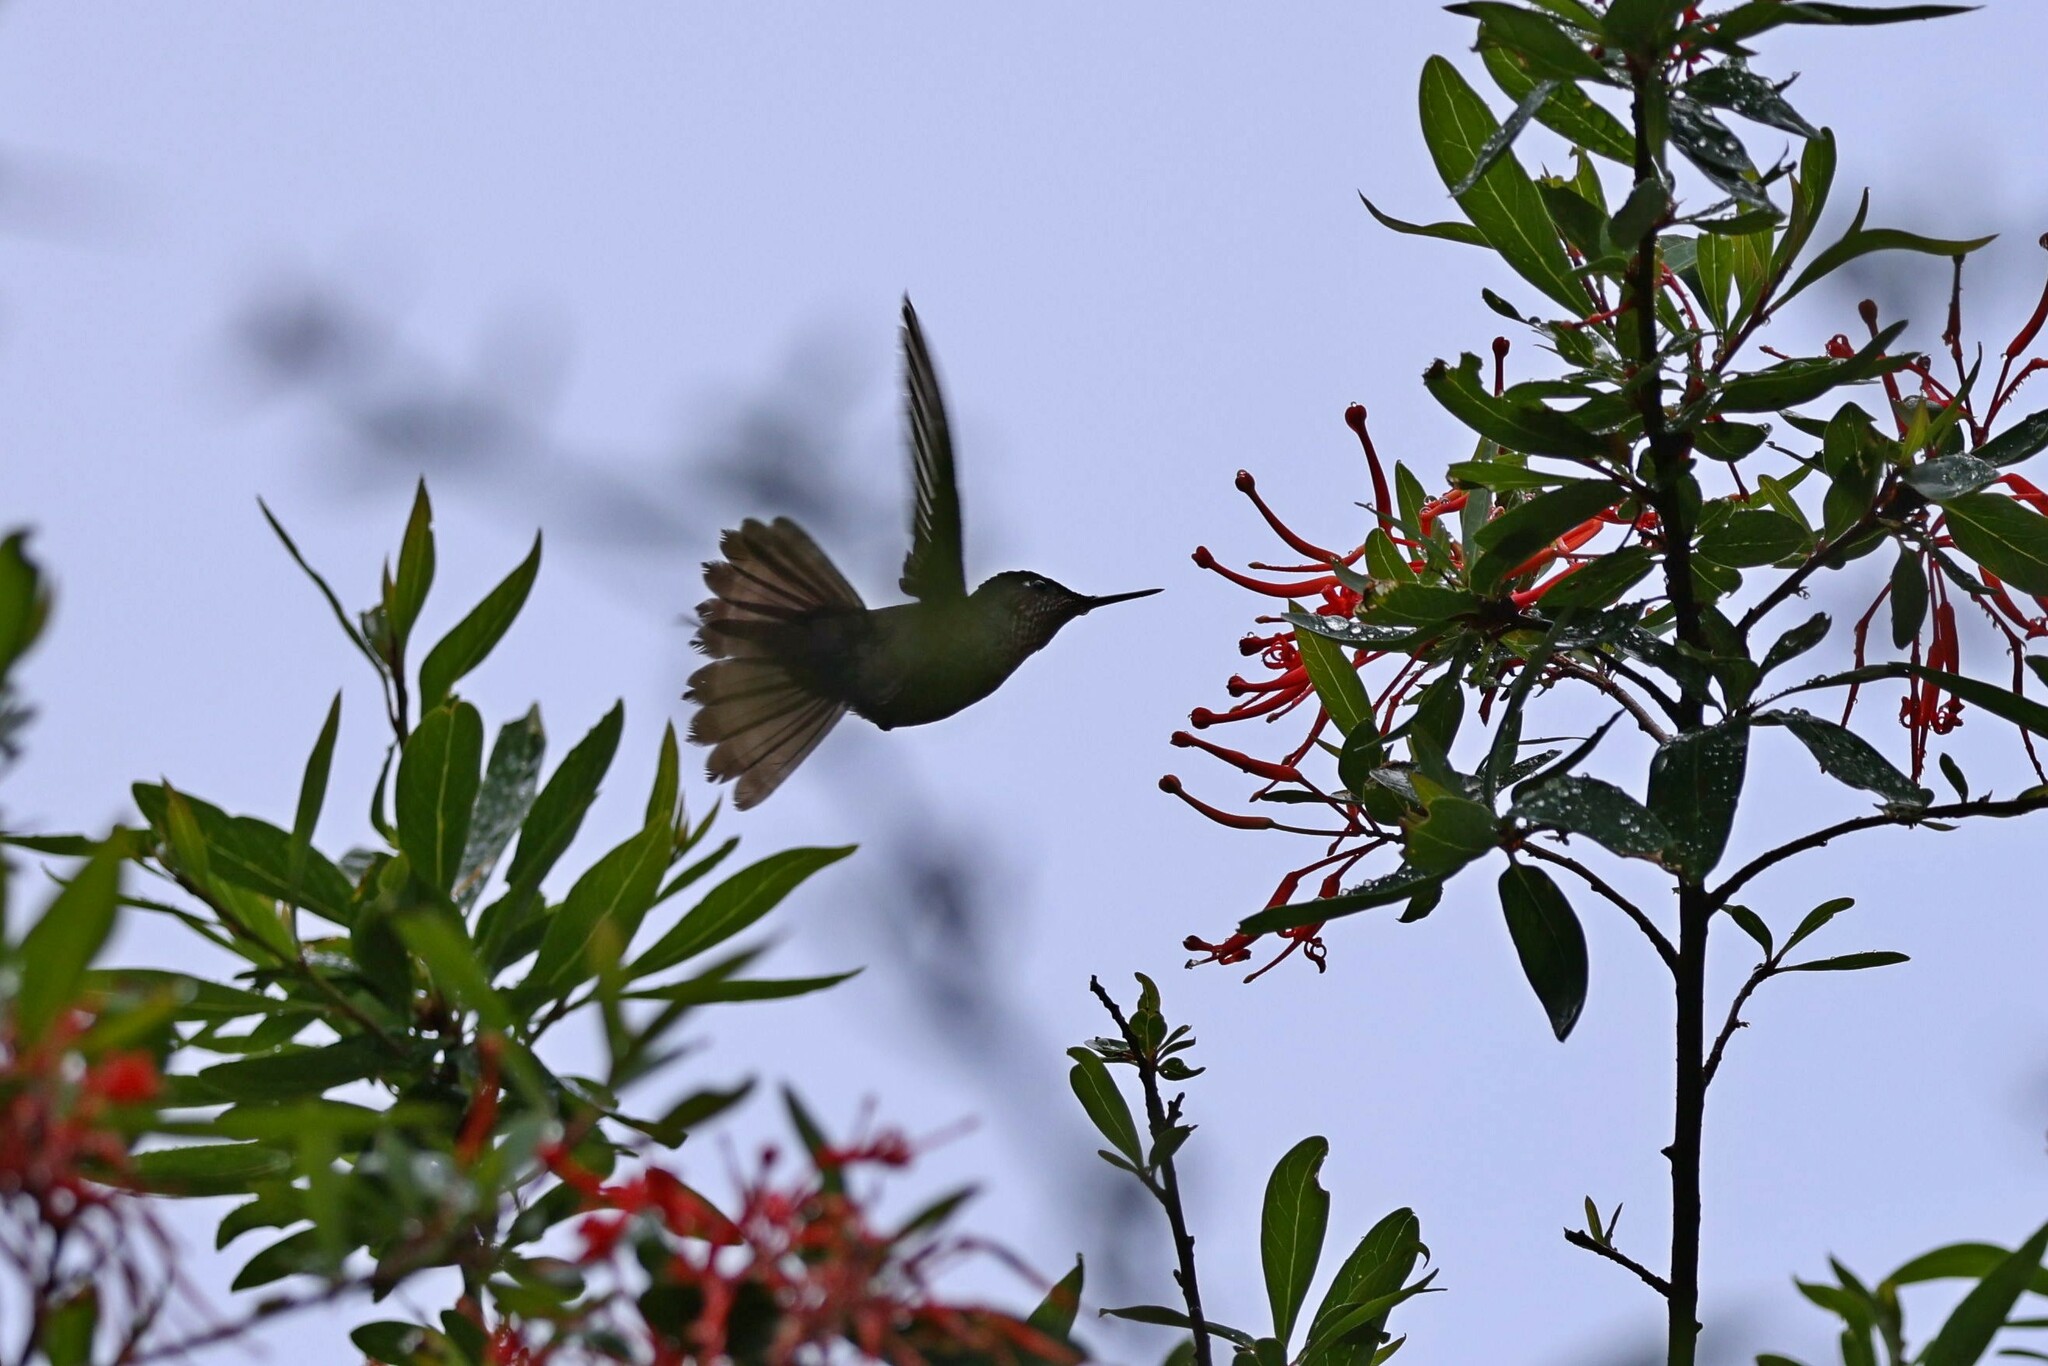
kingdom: Animalia
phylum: Chordata
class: Aves
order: Apodiformes
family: Trochilidae
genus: Sephanoides
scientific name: Sephanoides sephaniodes
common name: Green-backed firecrown
